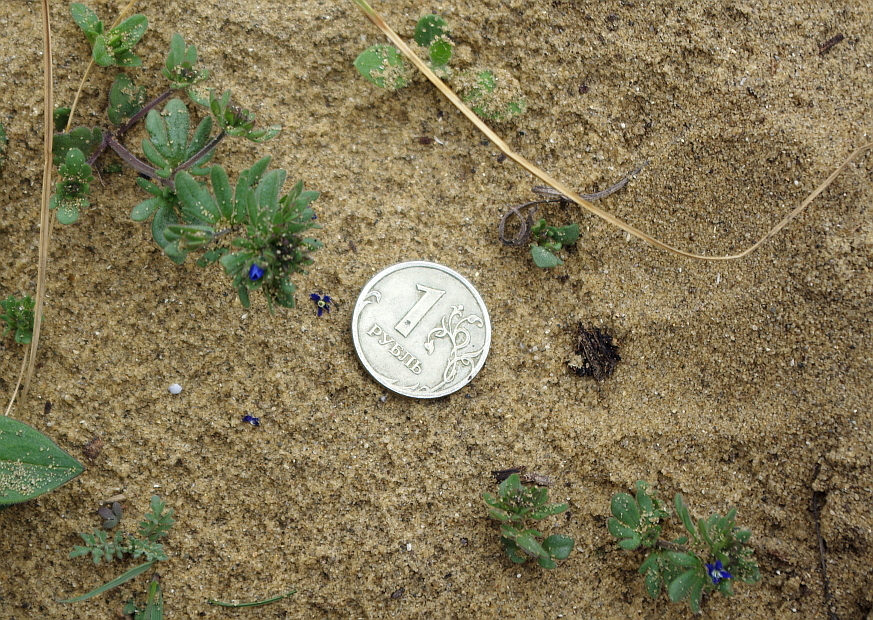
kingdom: Plantae
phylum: Tracheophyta
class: Magnoliopsida
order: Lamiales
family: Plantaginaceae
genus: Veronica
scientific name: Veronica triphyllos
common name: Fingered speedwell
